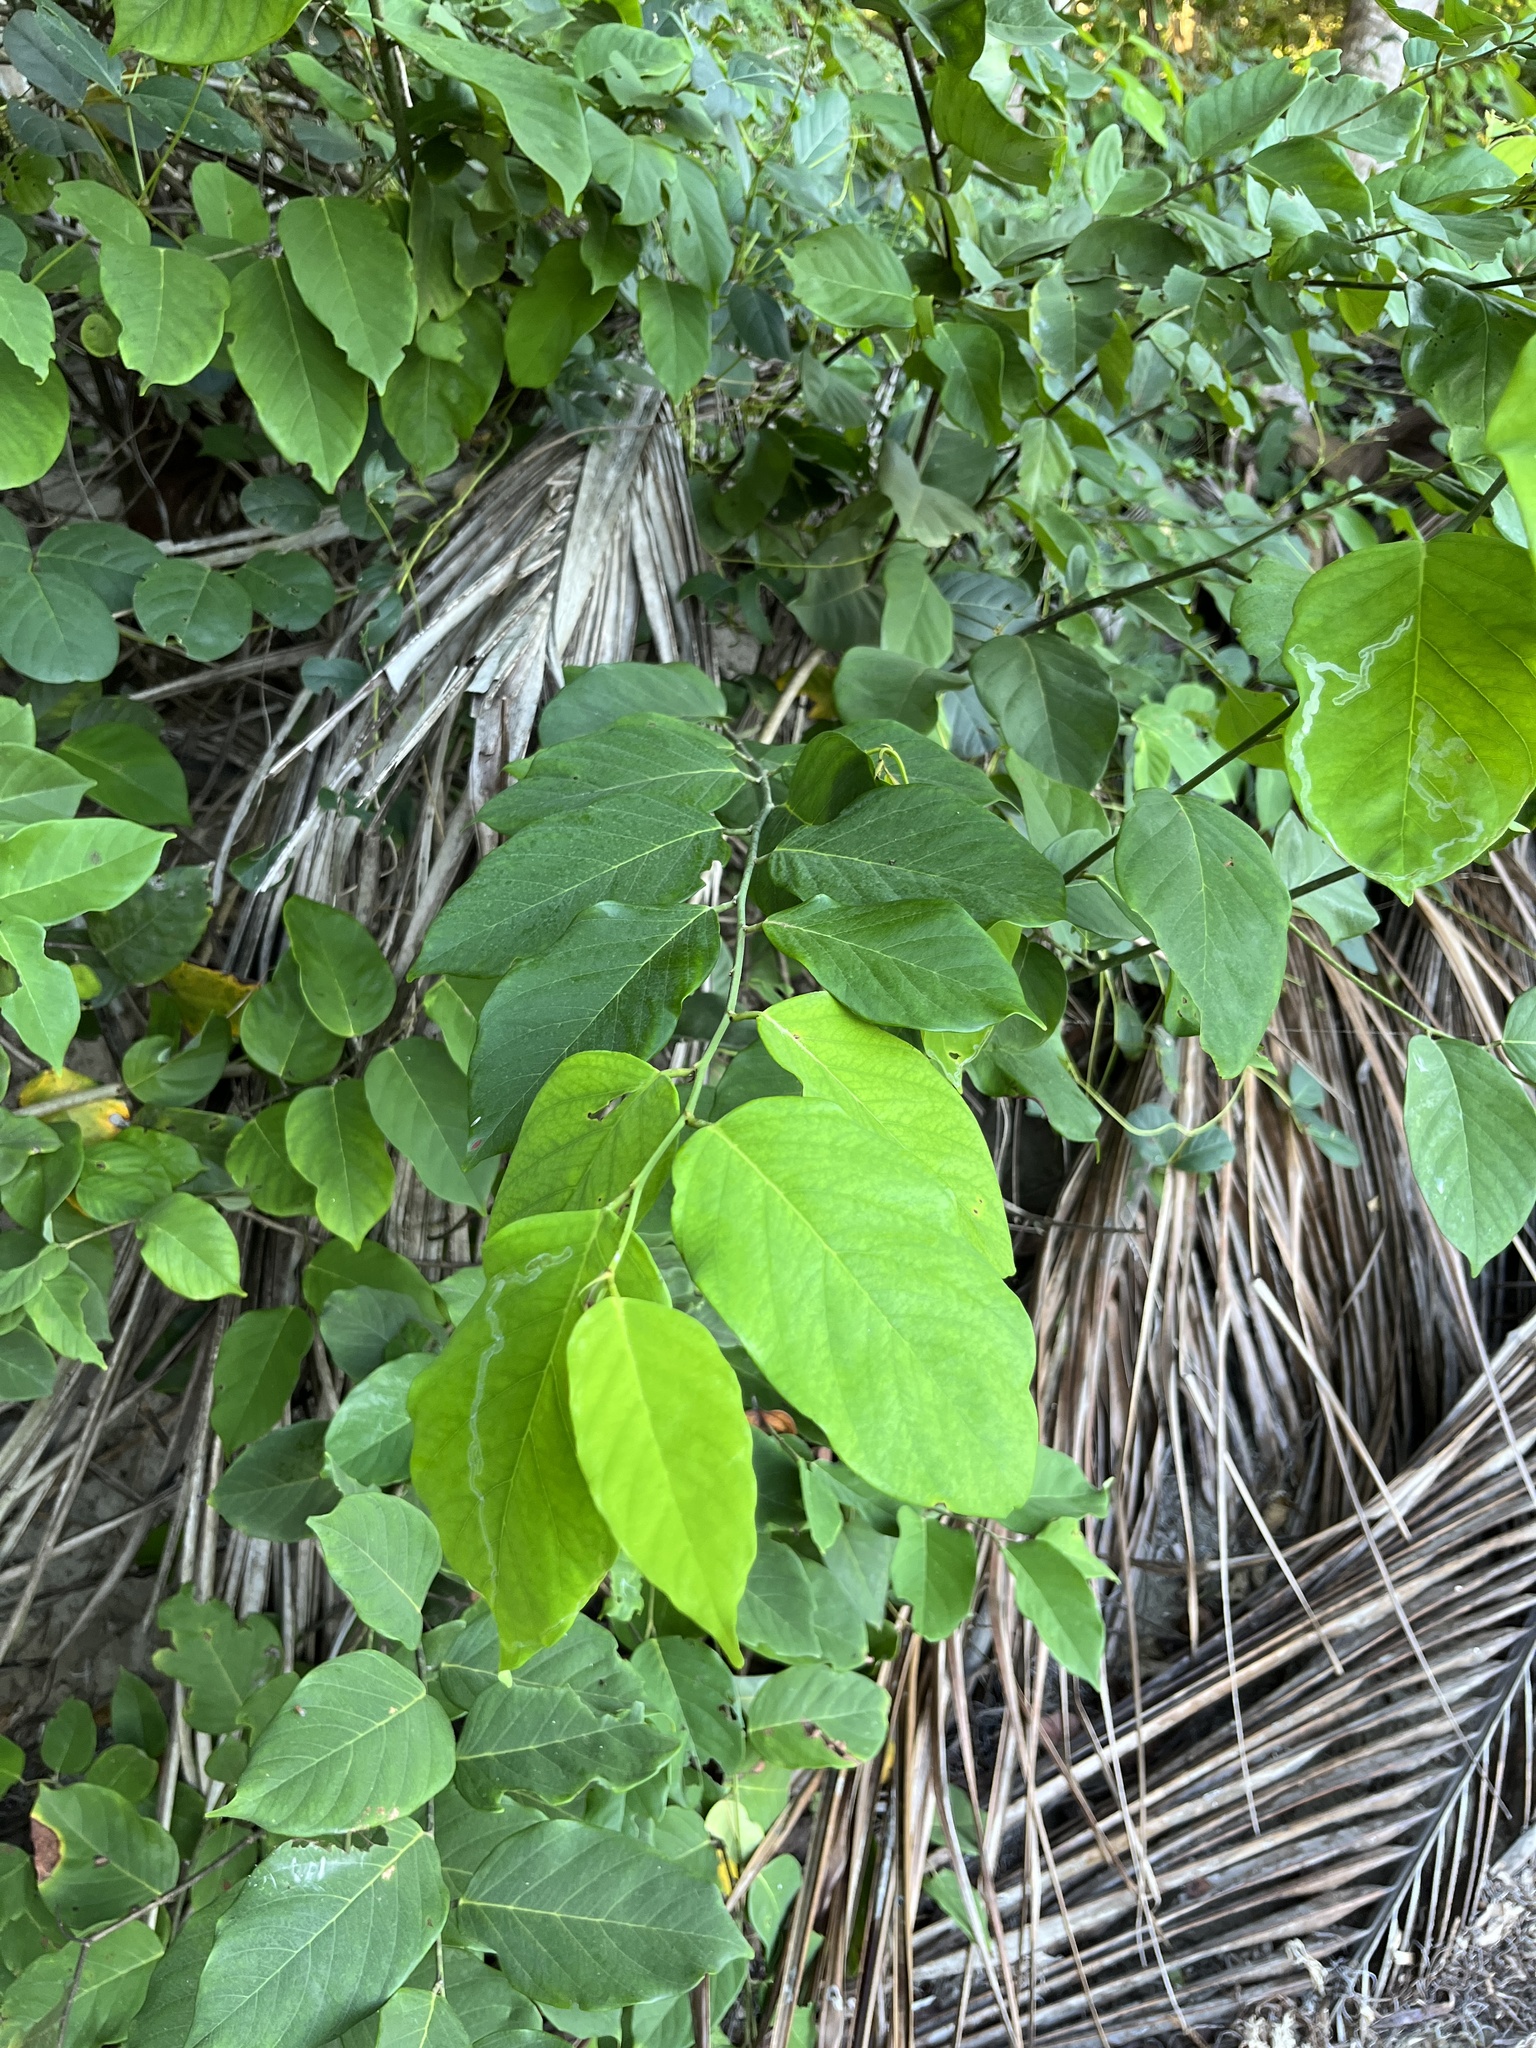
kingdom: Plantae
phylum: Tracheophyta
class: Magnoliopsida
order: Fabales
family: Fabaceae
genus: Dalbergia
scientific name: Dalbergia ecastaphyllum
